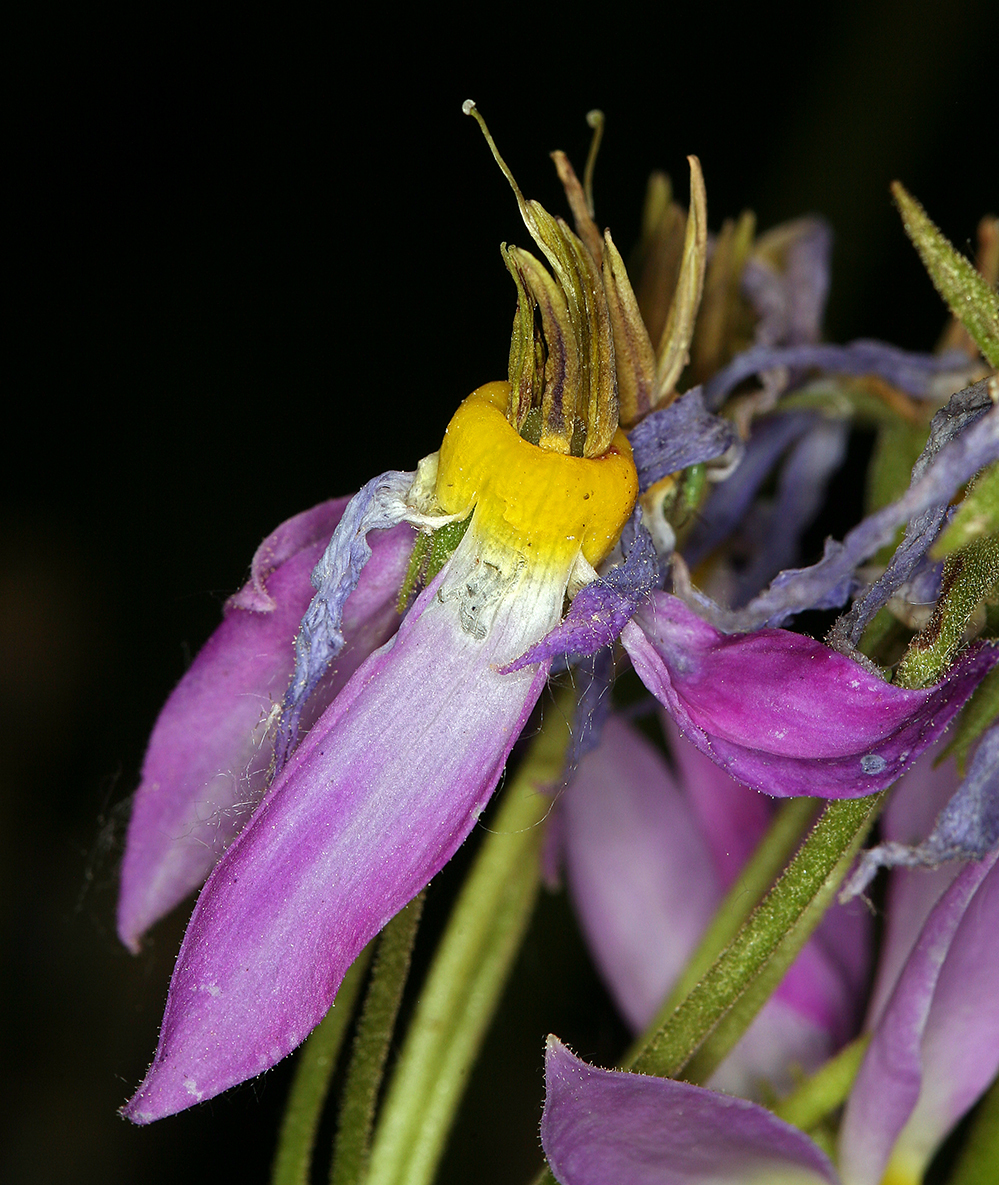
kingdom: Plantae
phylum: Tracheophyta
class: Magnoliopsida
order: Ericales
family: Primulaceae
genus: Dodecatheon
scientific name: Dodecatheon jeffreyanum
